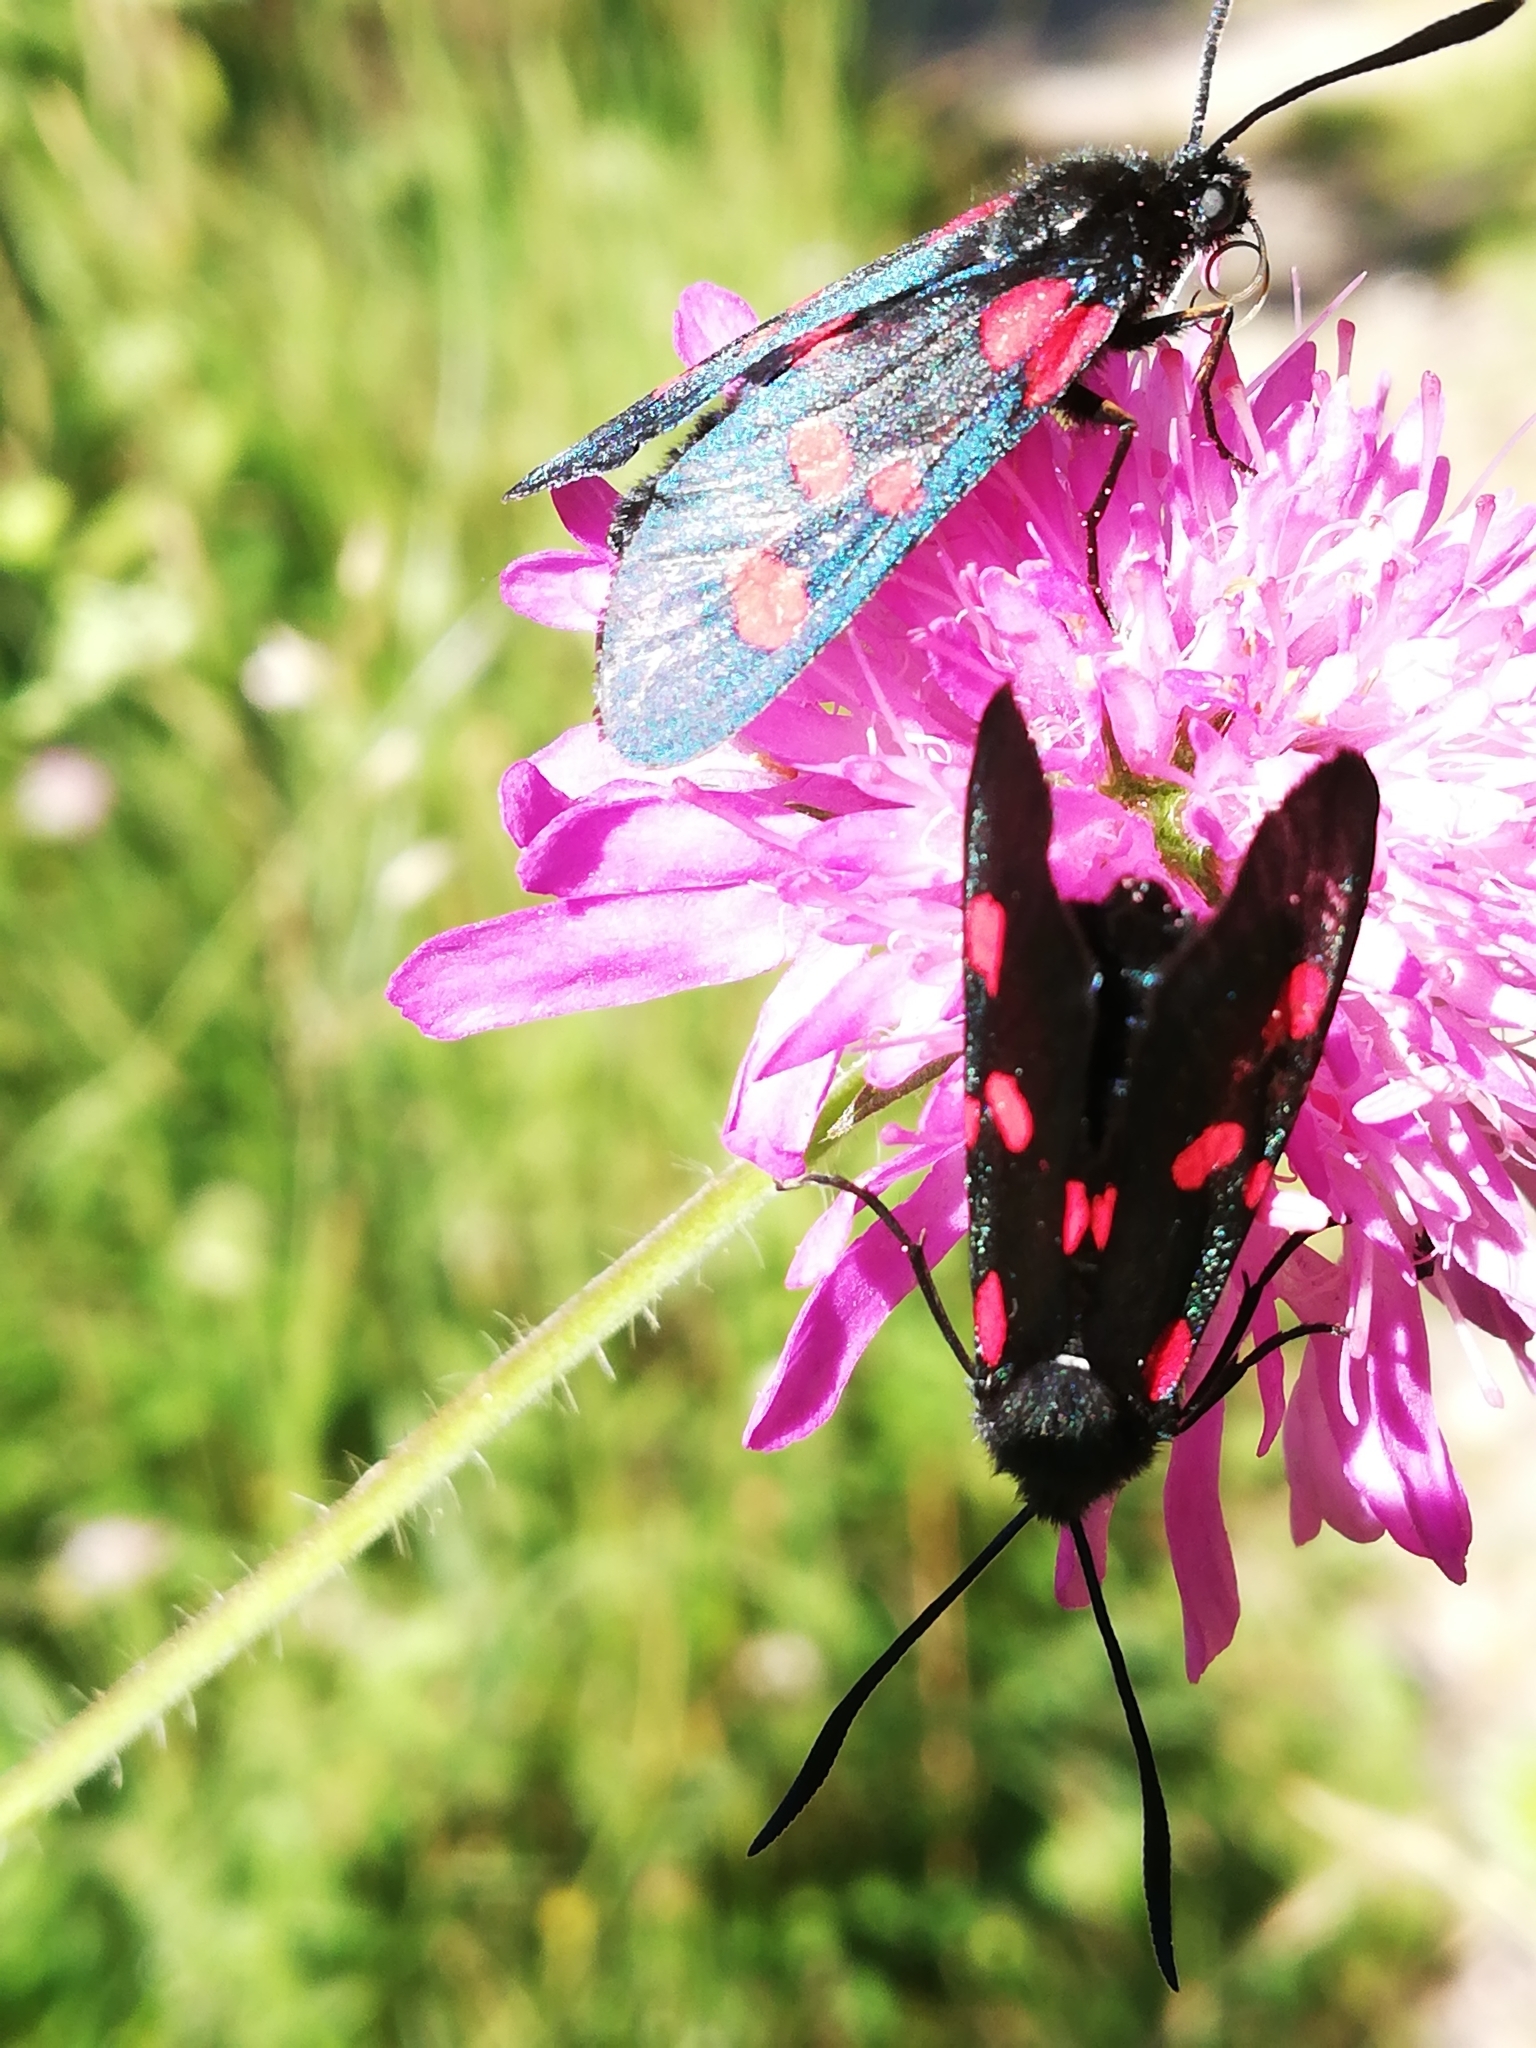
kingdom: Animalia
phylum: Arthropoda
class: Insecta
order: Lepidoptera
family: Zygaenidae
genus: Zygaena
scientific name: Zygaena lonicerae
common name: Narrow-bordered five-spot burnet
